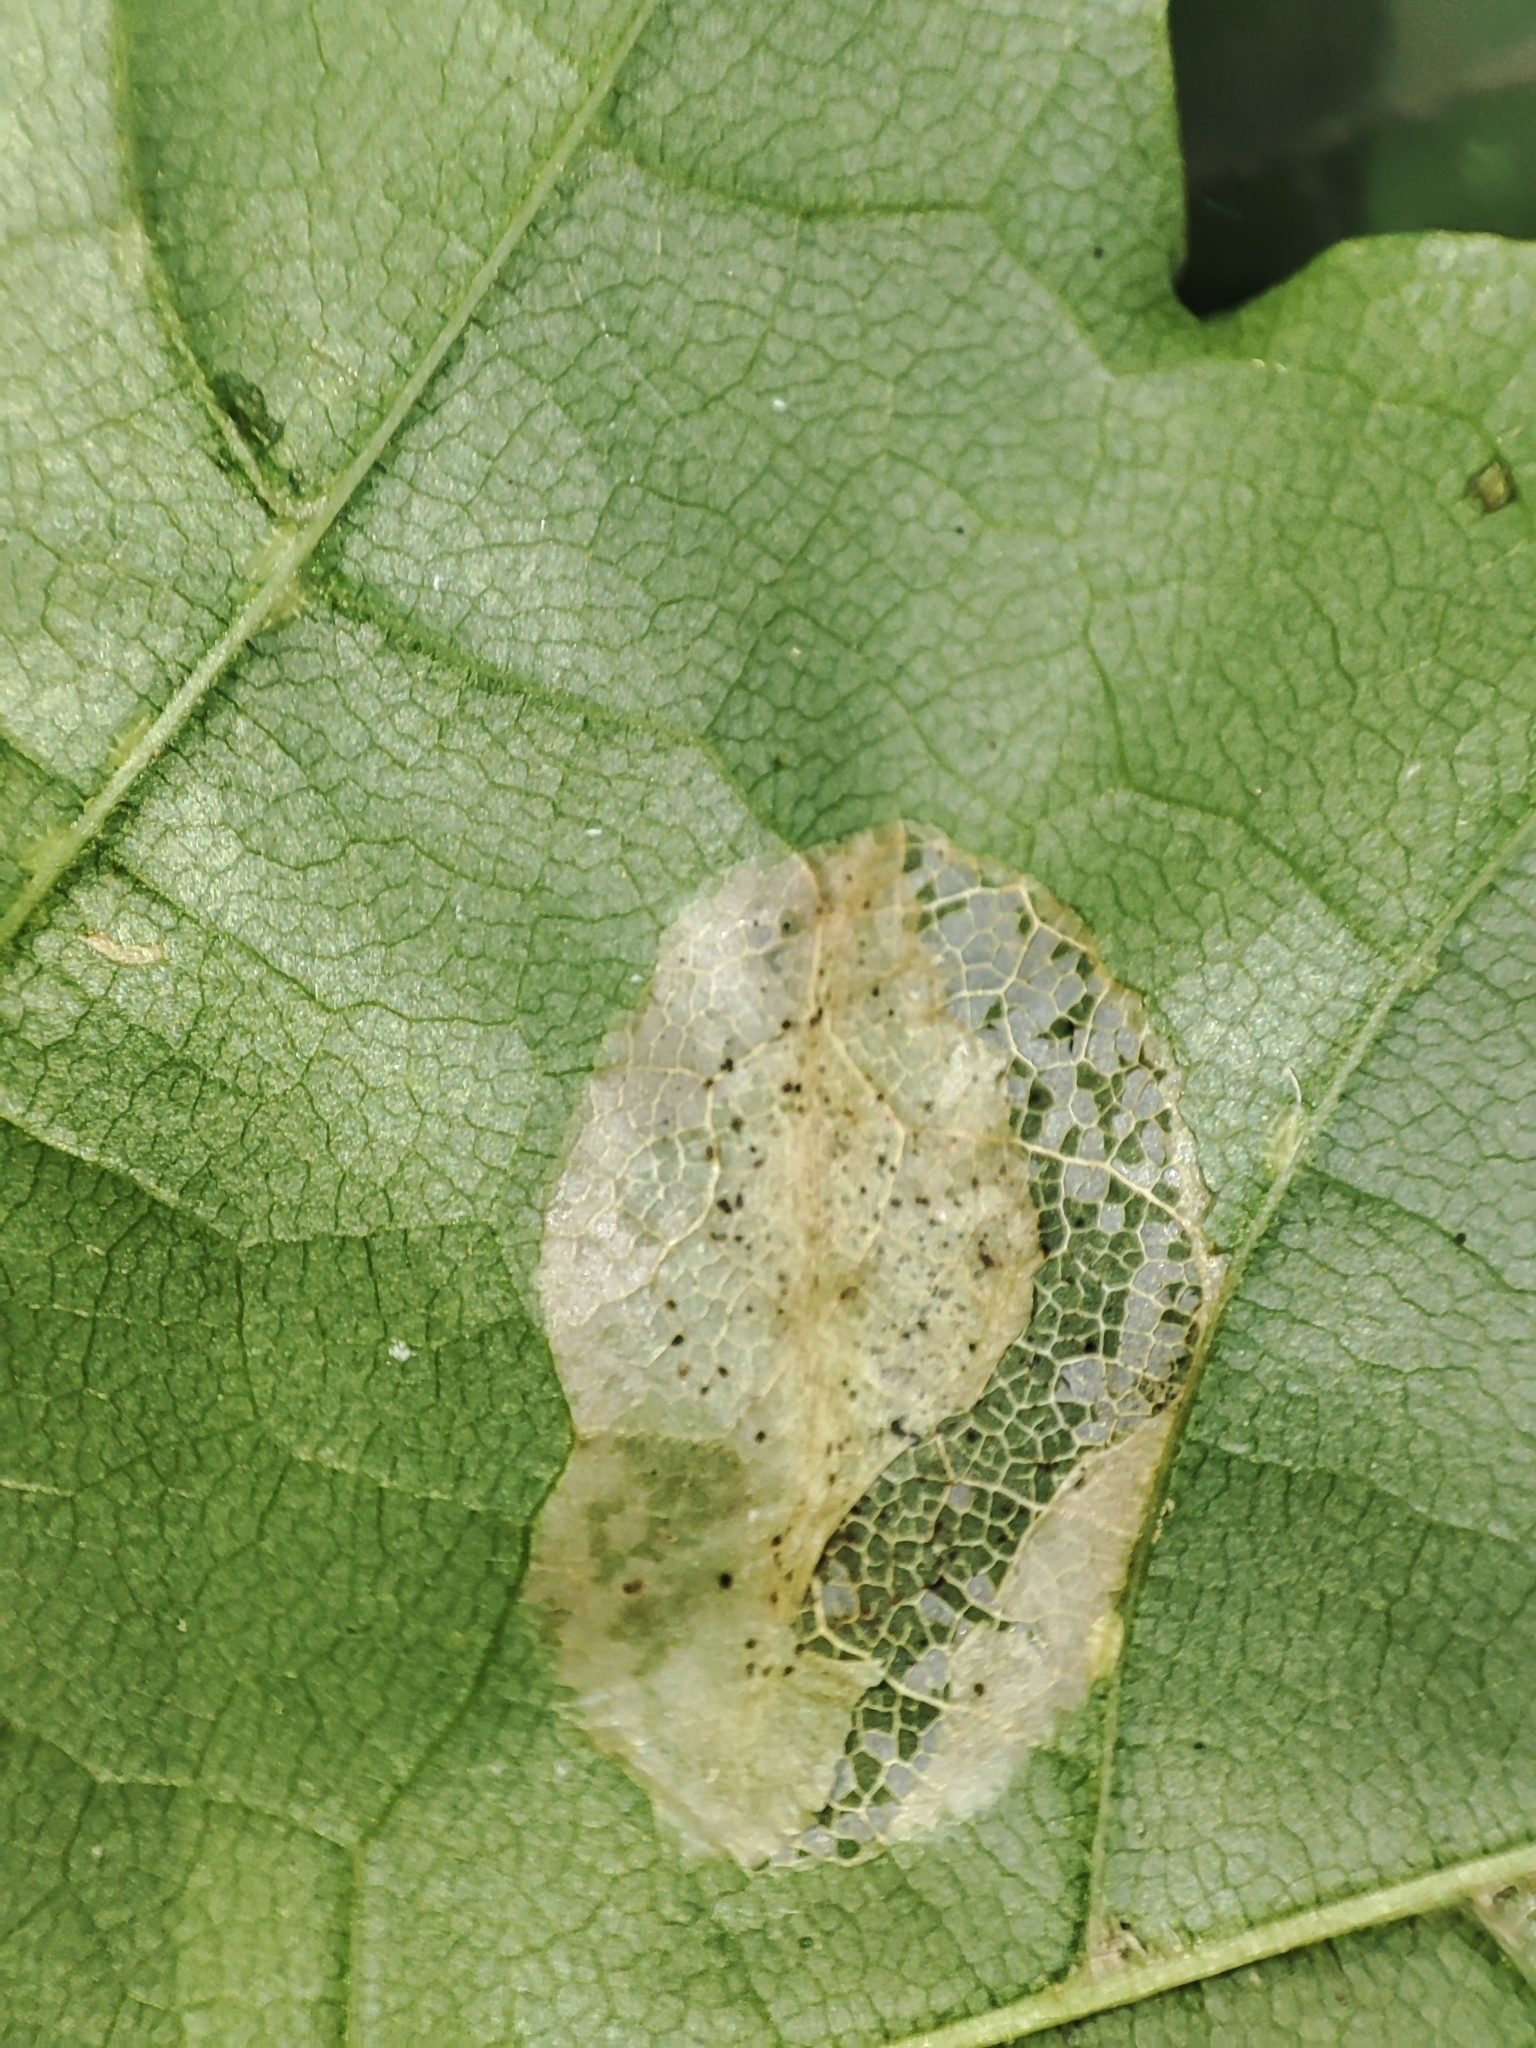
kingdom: Plantae
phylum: Tracheophyta
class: Magnoliopsida
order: Sapindales
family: Sapindaceae
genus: Acer
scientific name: Acer platanoides
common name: Norway maple
